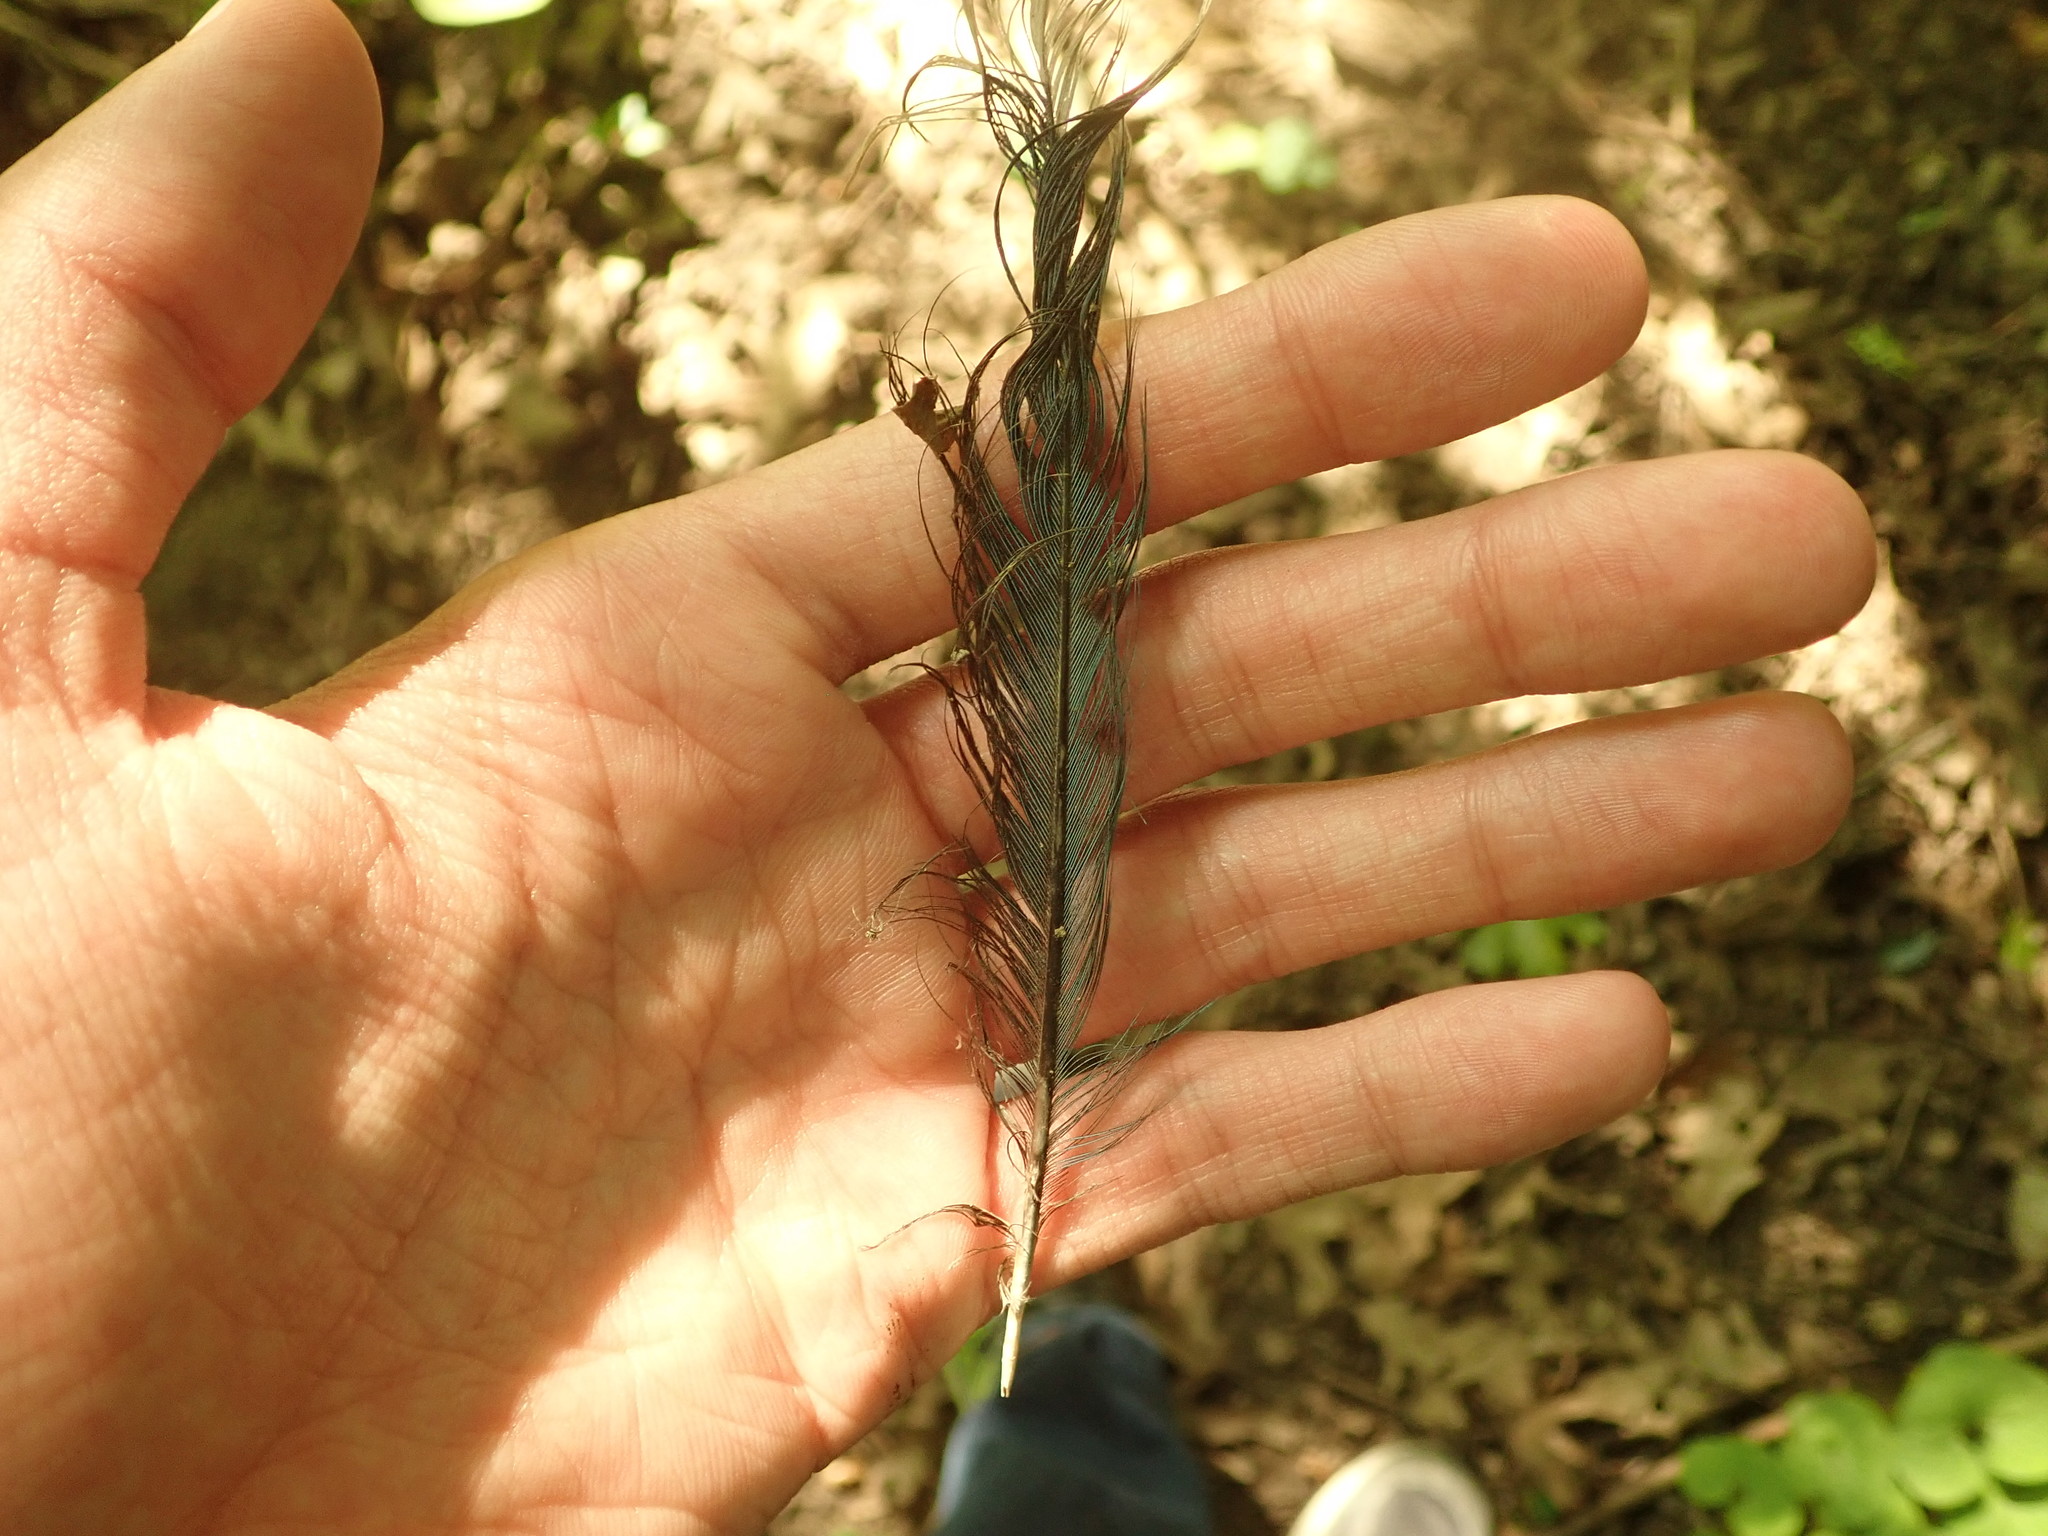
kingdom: Animalia
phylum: Chordata
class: Aves
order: Passeriformes
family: Corvidae
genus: Cyanocitta
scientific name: Cyanocitta cristata
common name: Blue jay
